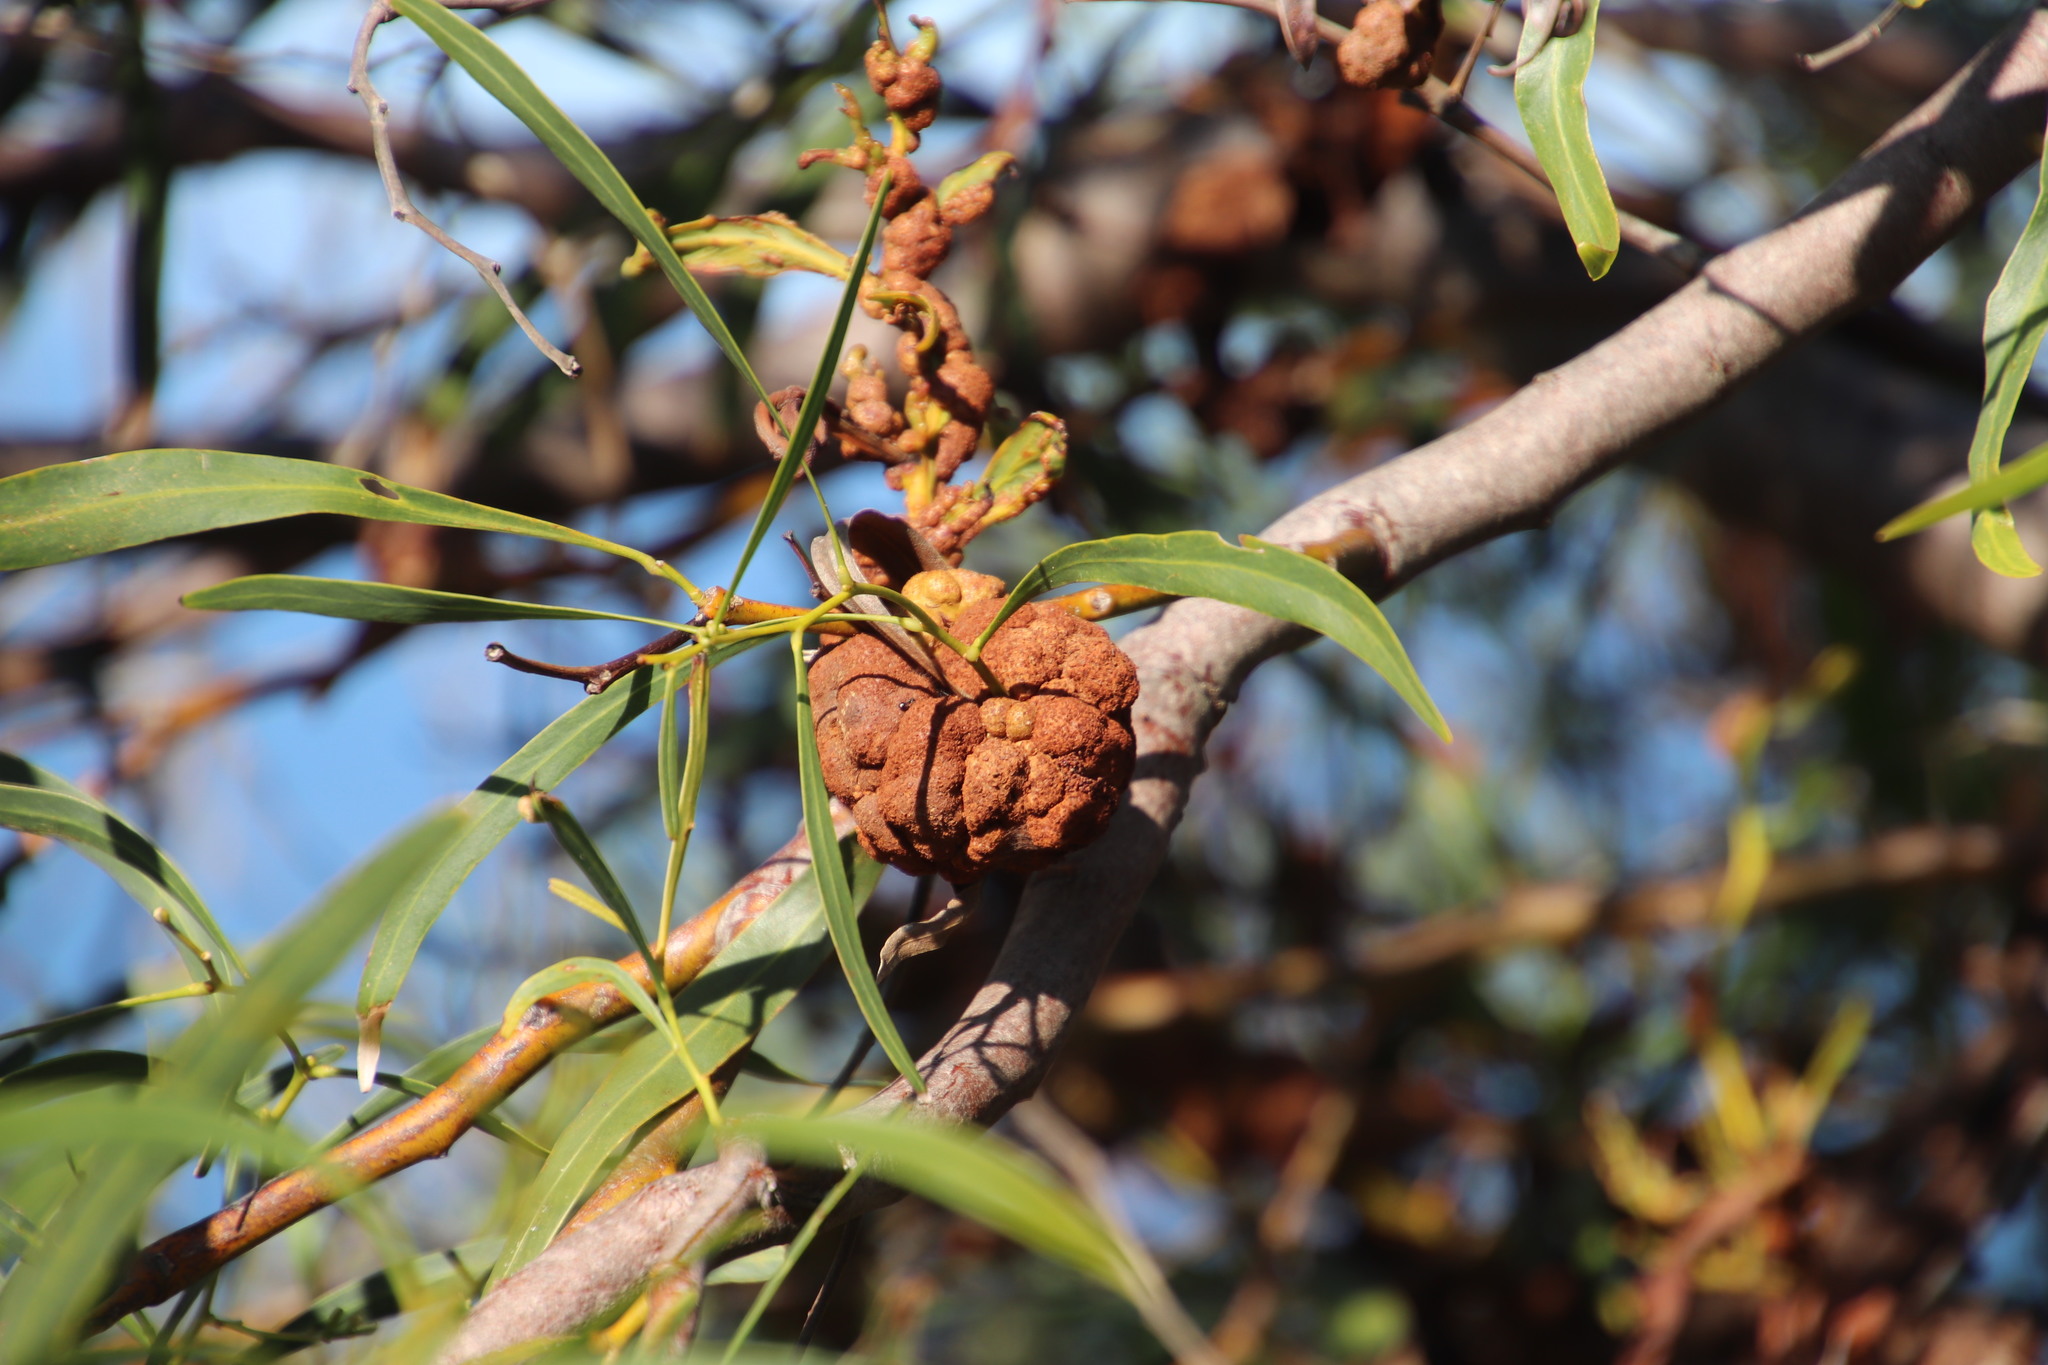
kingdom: Plantae
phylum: Tracheophyta
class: Magnoliopsida
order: Fabales
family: Fabaceae
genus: Acacia
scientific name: Acacia saligna
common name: Orange wattle
